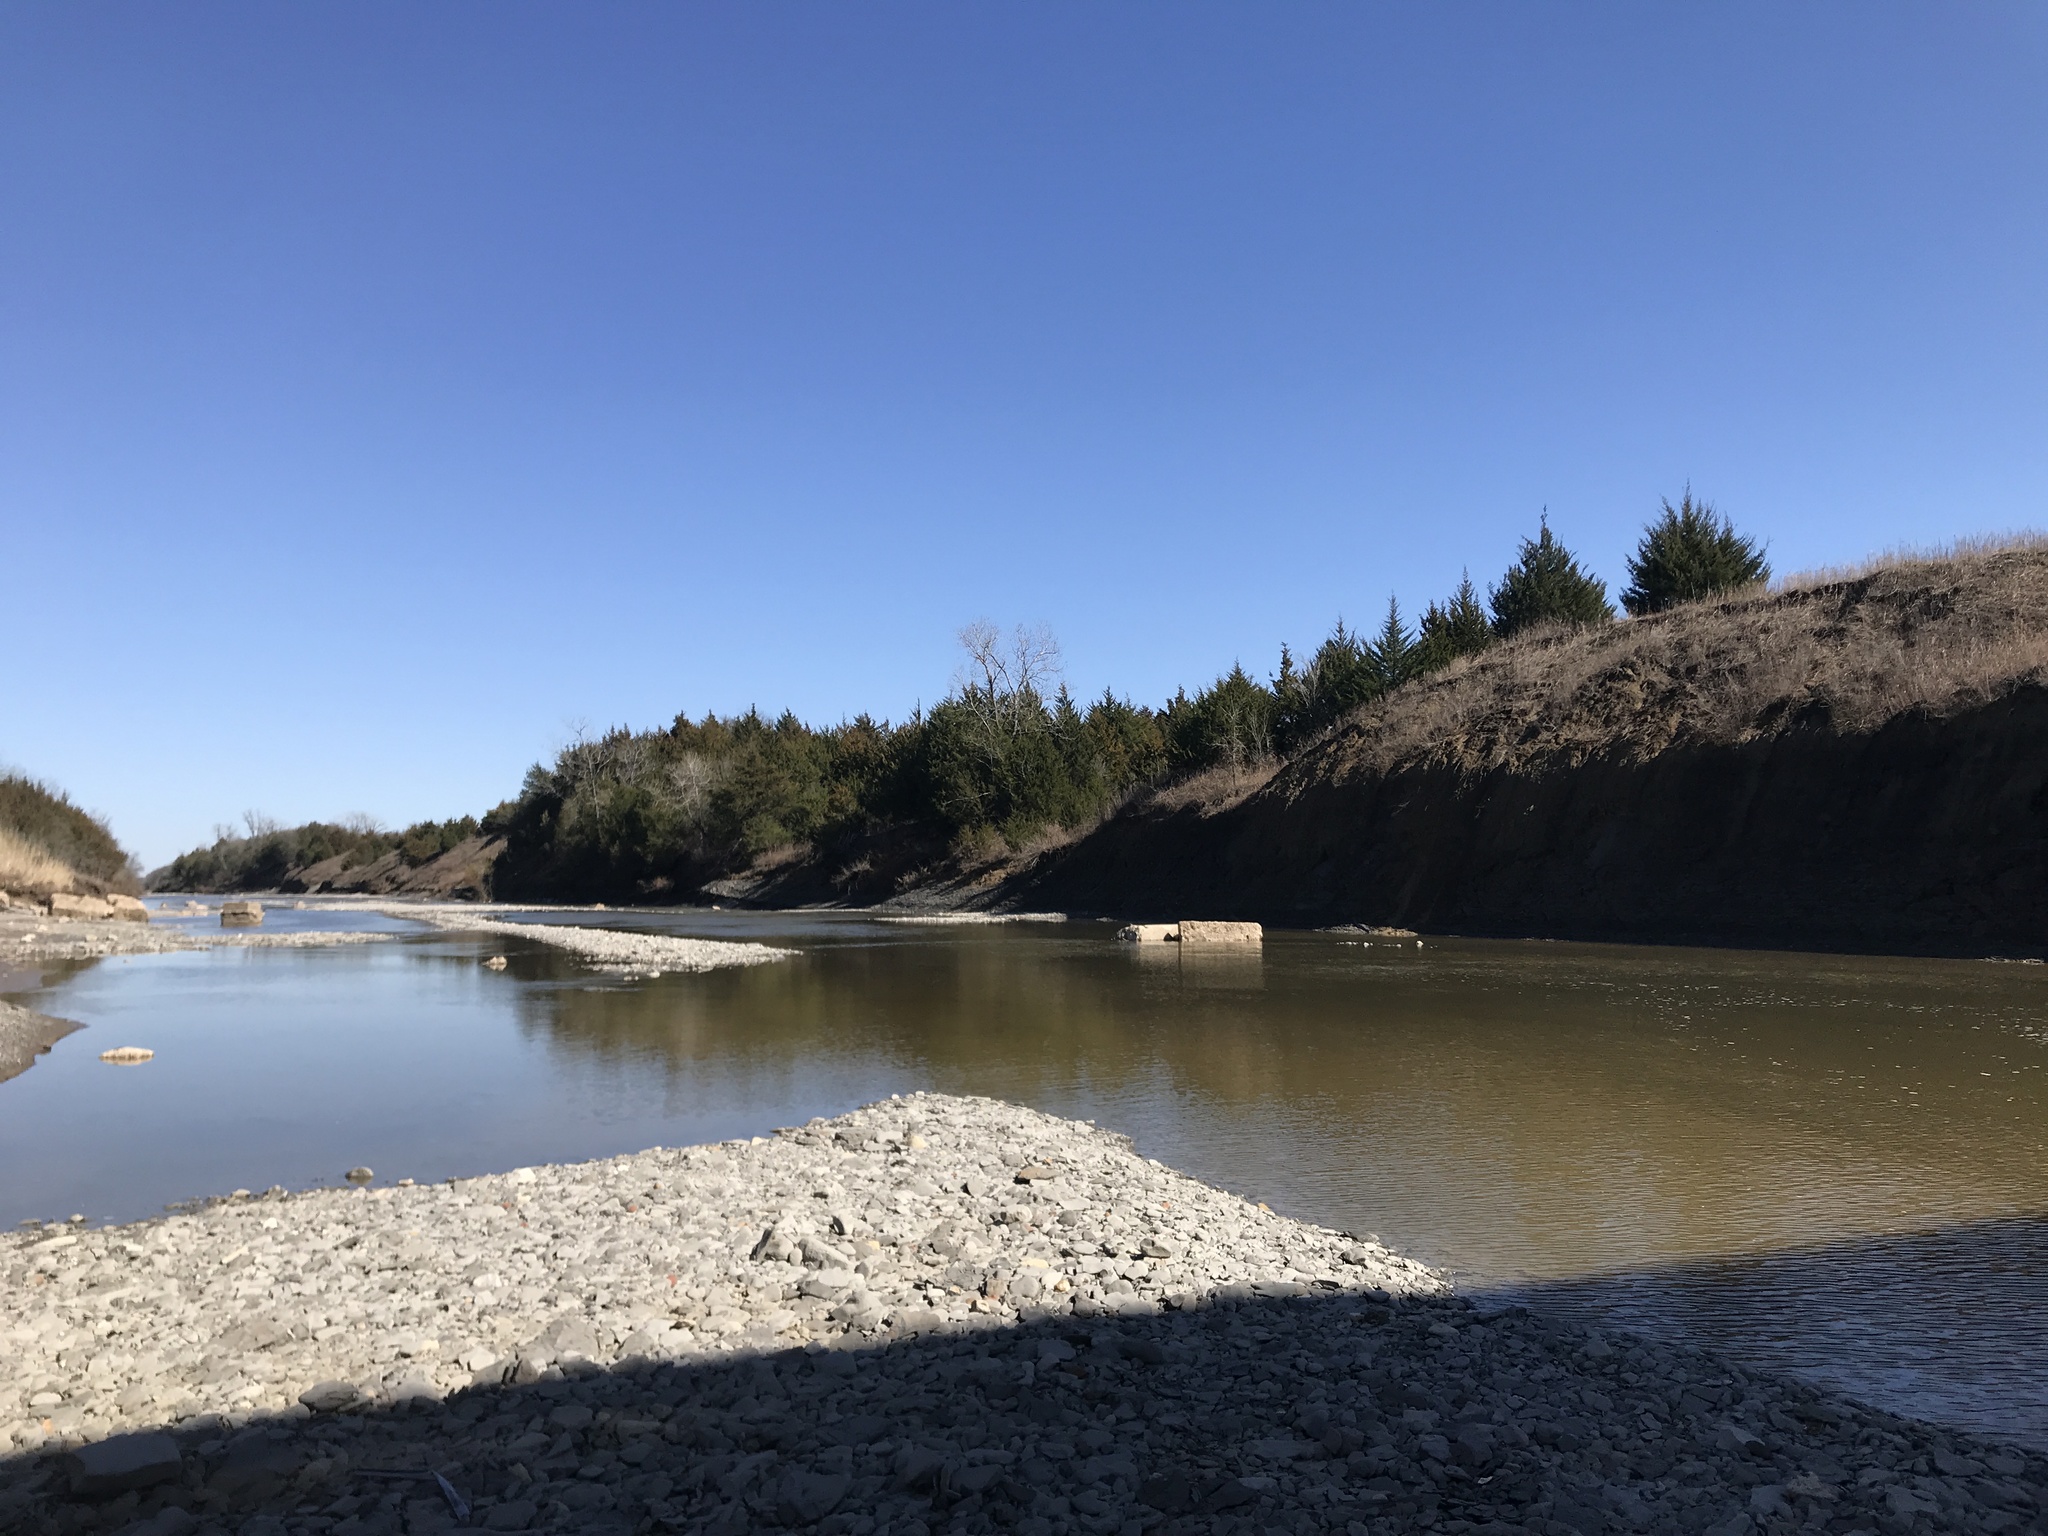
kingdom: Plantae
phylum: Tracheophyta
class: Pinopsida
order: Pinales
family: Cupressaceae
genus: Juniperus
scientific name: Juniperus virginiana
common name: Red juniper
